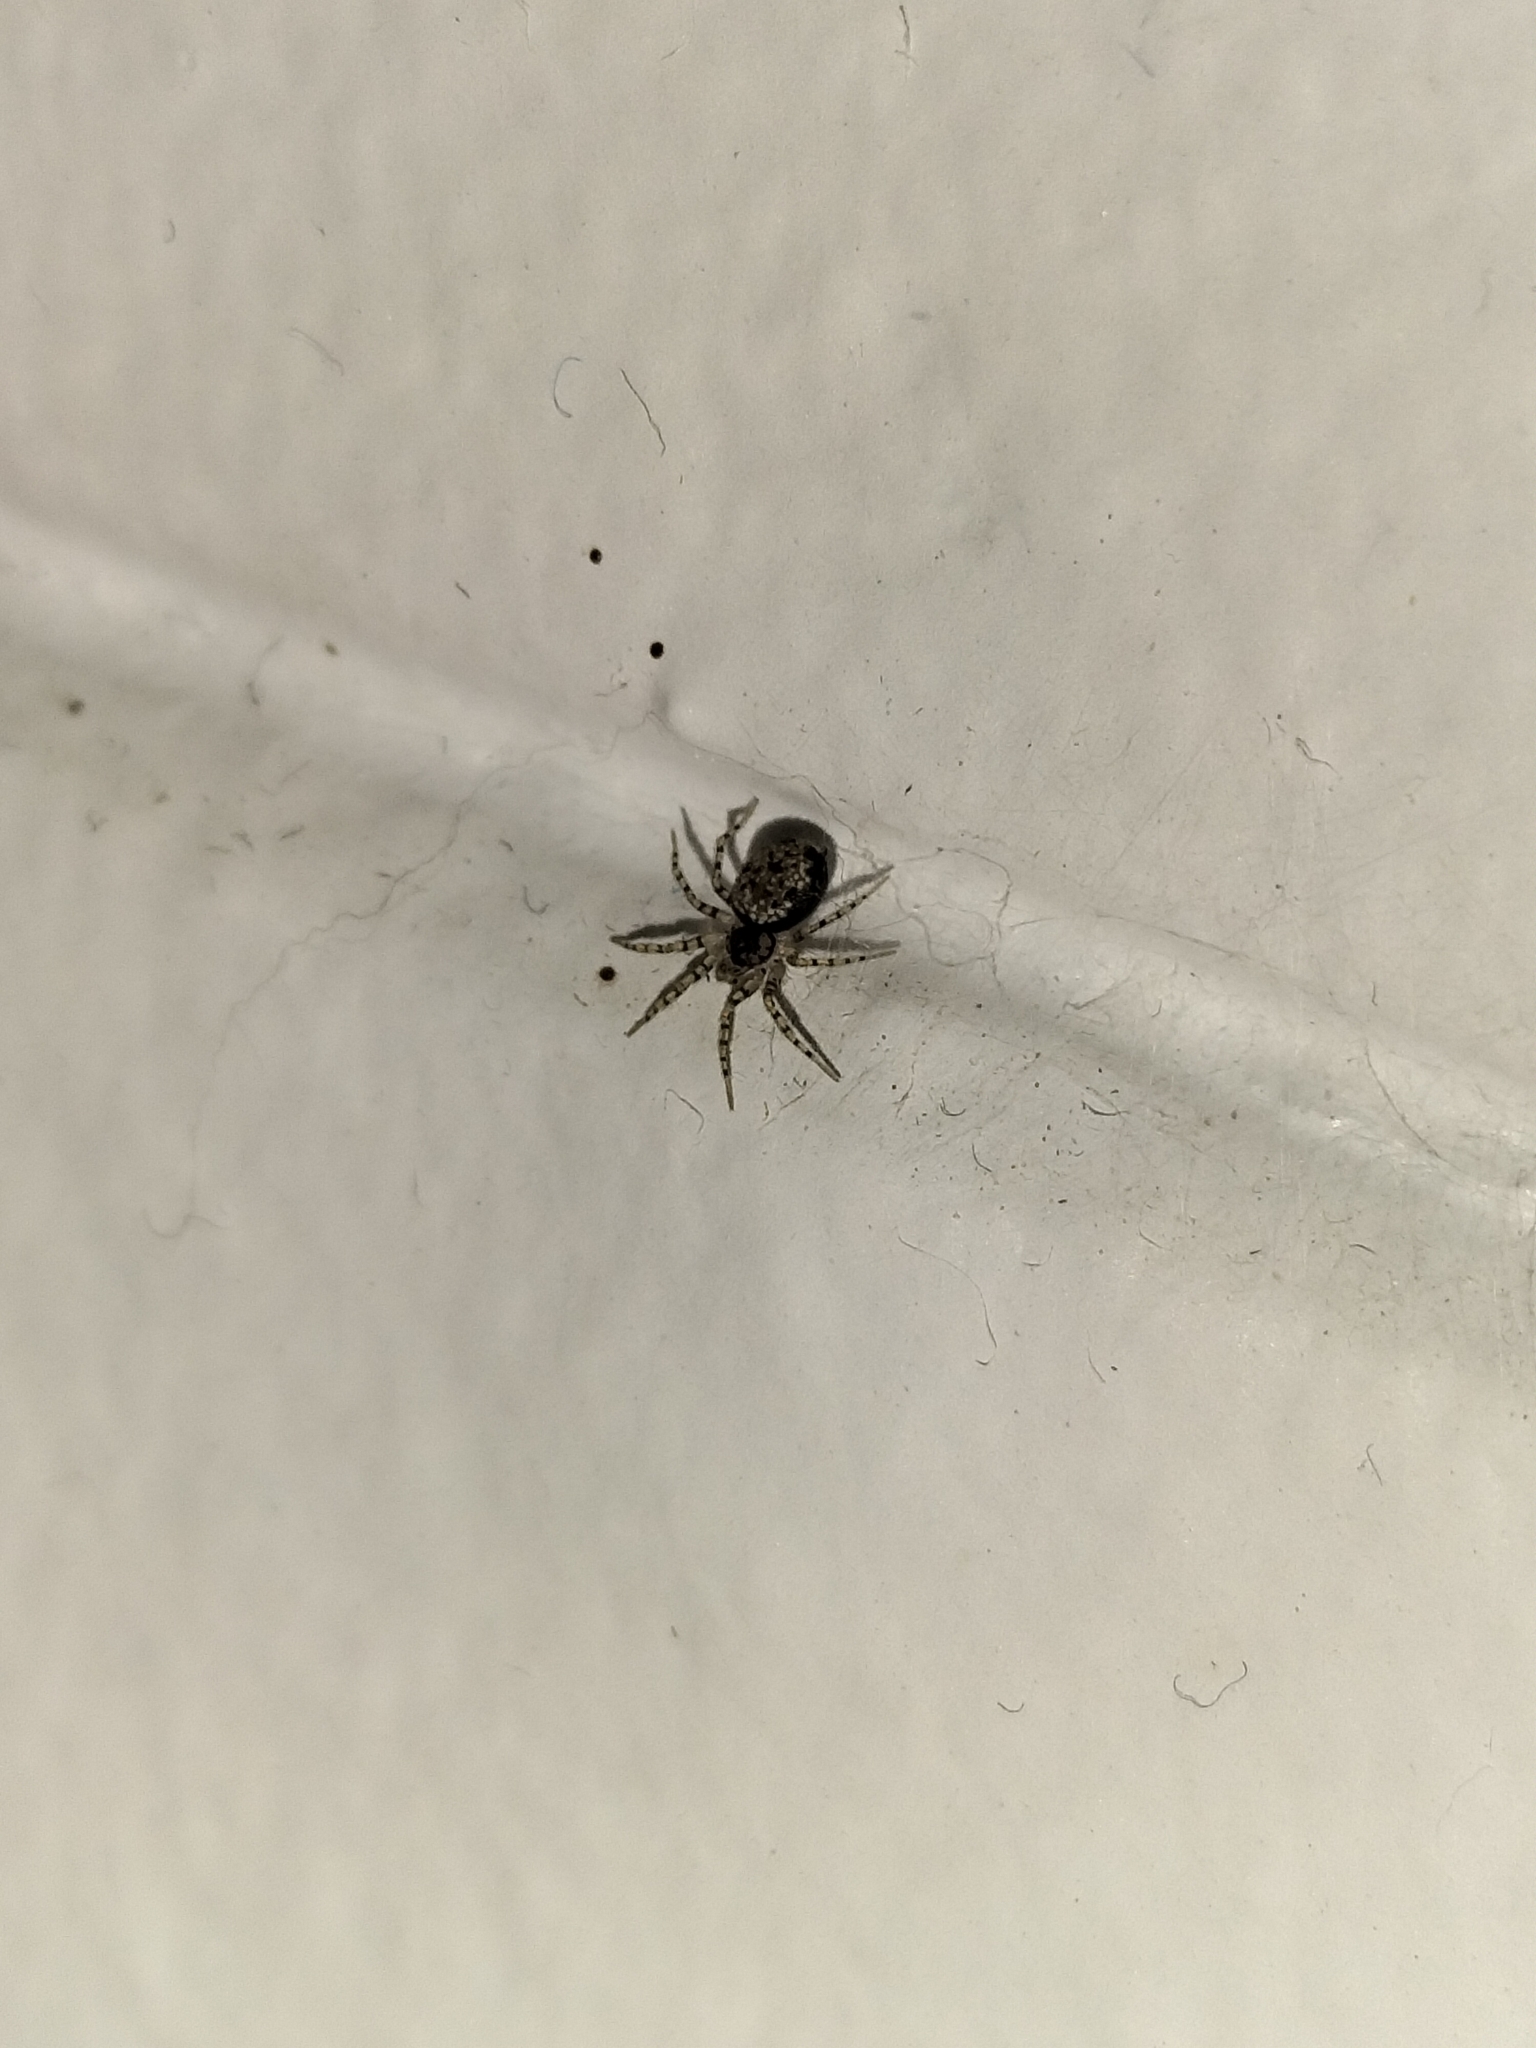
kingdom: Animalia
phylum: Arthropoda
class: Arachnida
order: Araneae
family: Oecobiidae
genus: Oecobius
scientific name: Oecobius navus
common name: Flatmesh weaver
